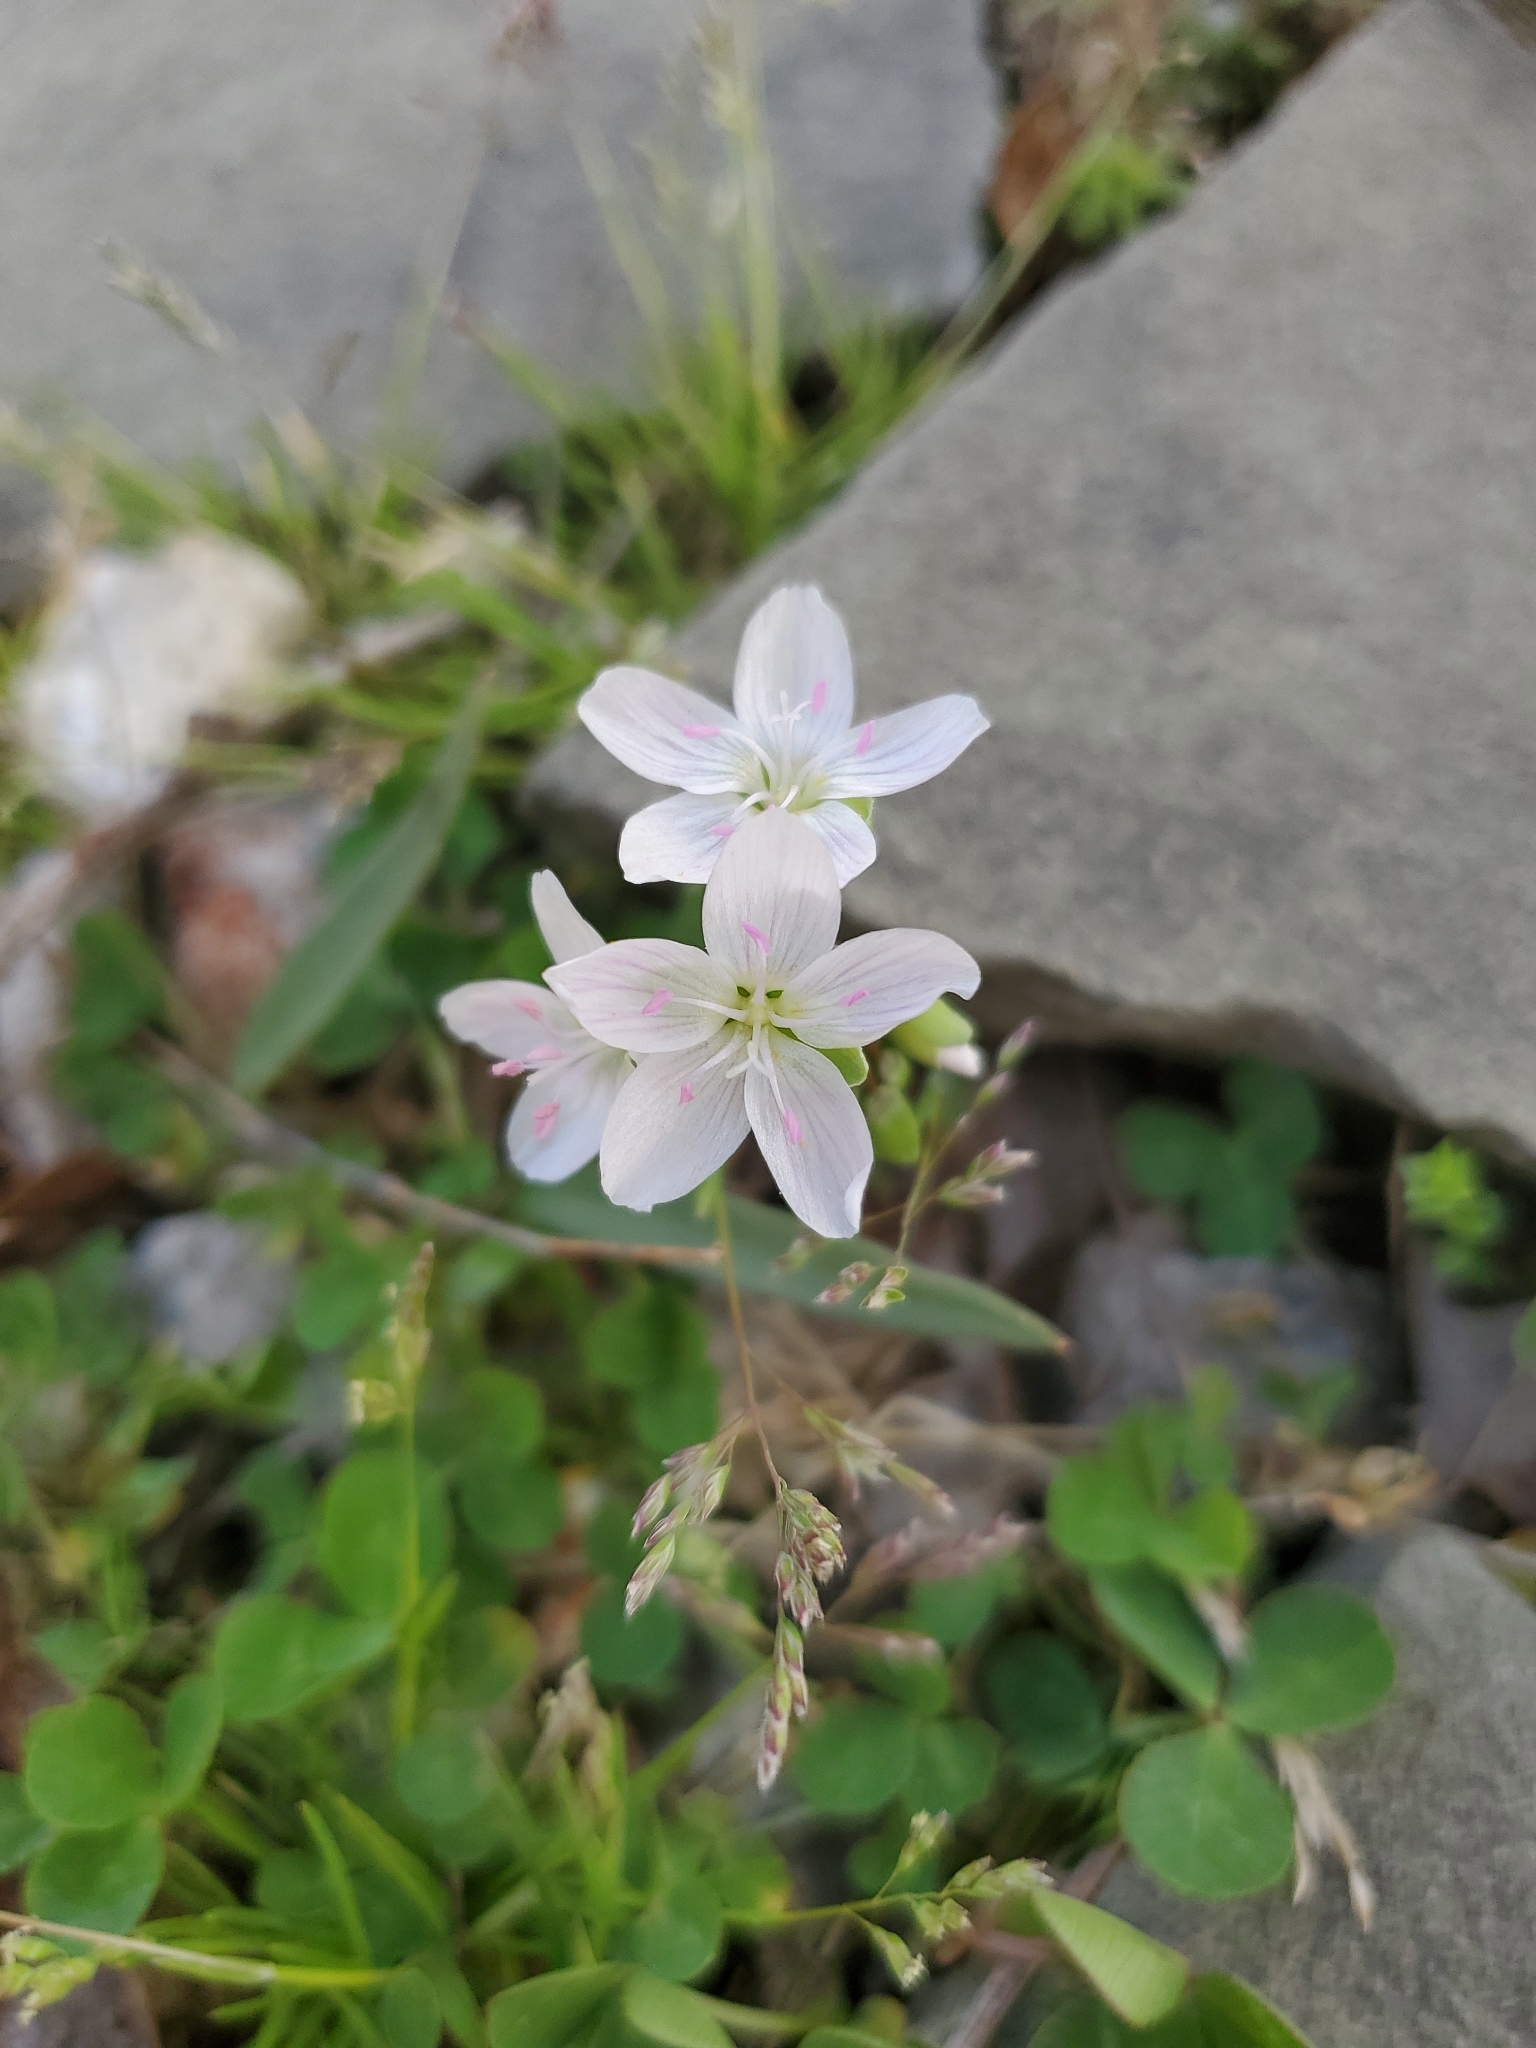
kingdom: Plantae
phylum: Tracheophyta
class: Magnoliopsida
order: Caryophyllales
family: Montiaceae
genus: Claytonia
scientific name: Claytonia virginica
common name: Virginia springbeauty
